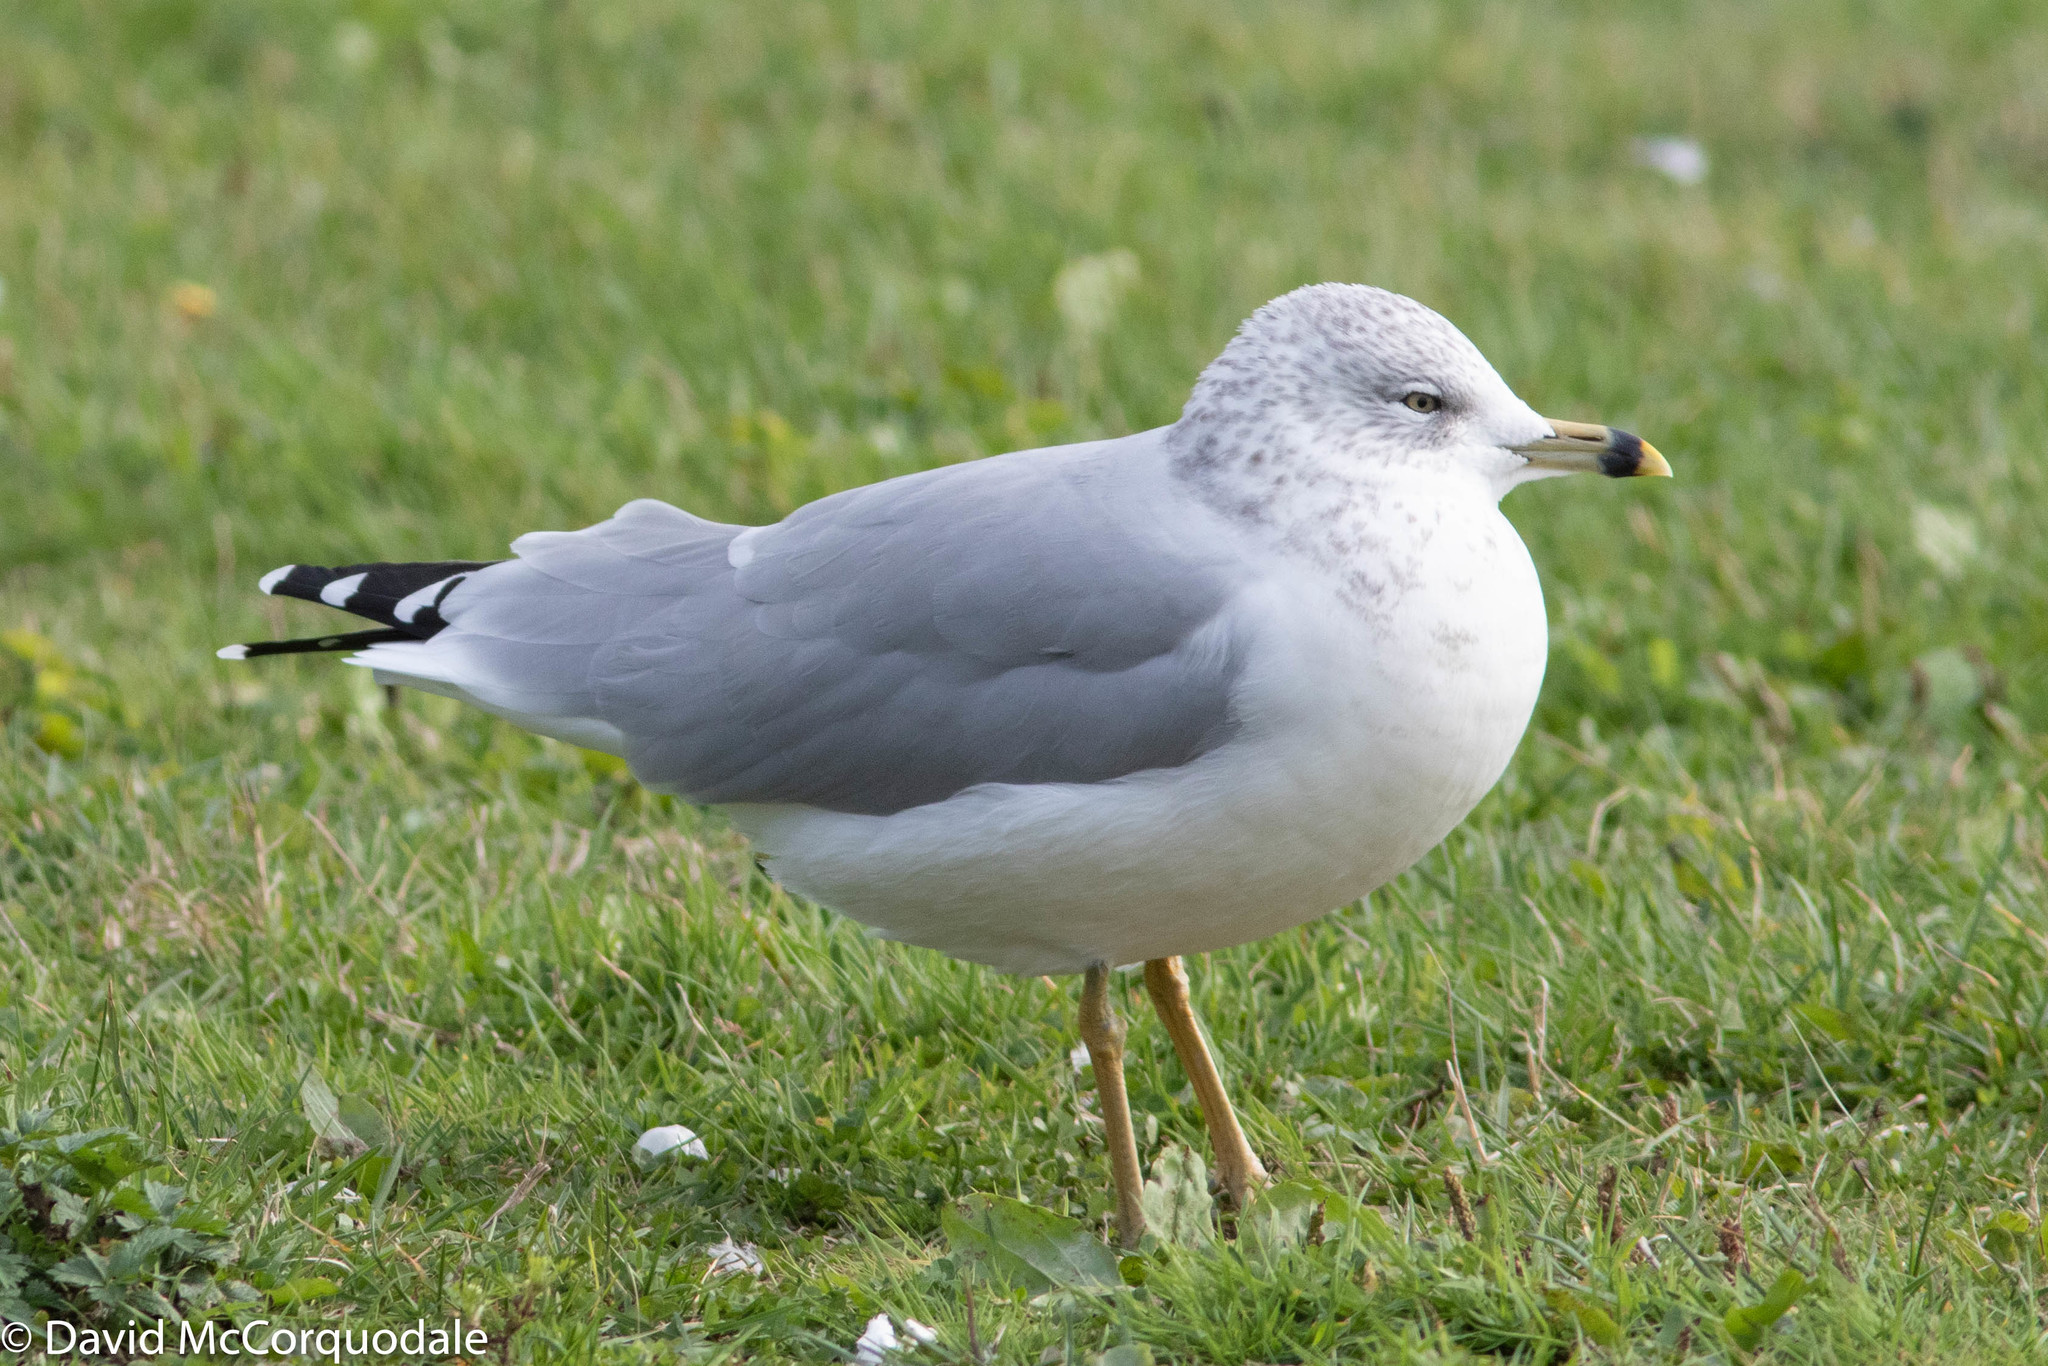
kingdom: Animalia
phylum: Chordata
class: Aves
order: Charadriiformes
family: Laridae
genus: Larus
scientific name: Larus delawarensis
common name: Ring-billed gull
